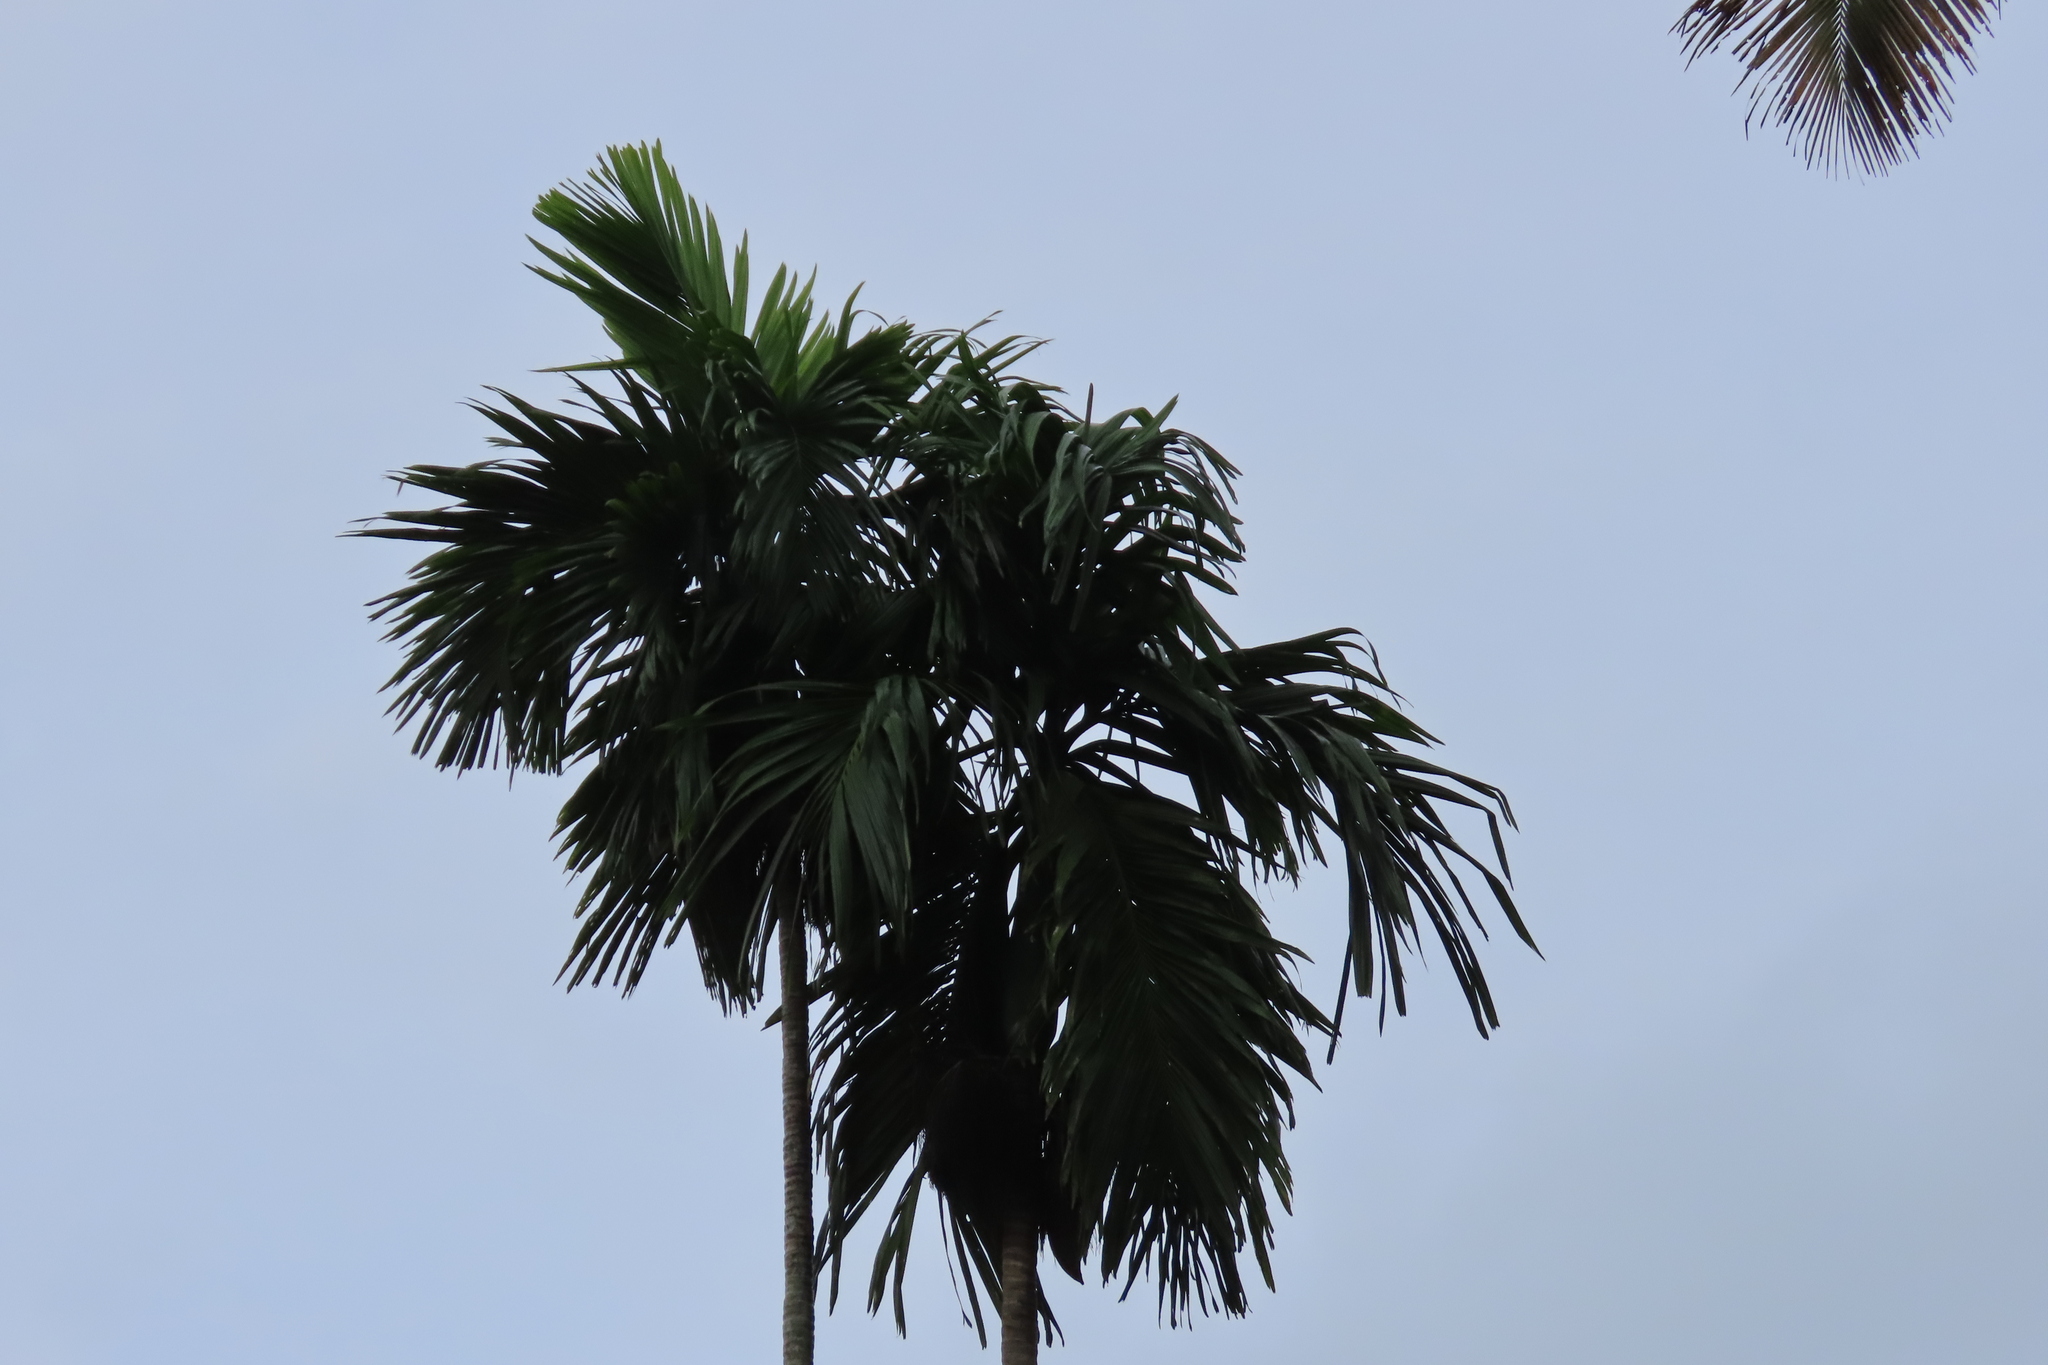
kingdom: Plantae
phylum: Tracheophyta
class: Liliopsida
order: Arecales
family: Arecaceae
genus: Areca
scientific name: Areca catechu
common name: Indian-nut
